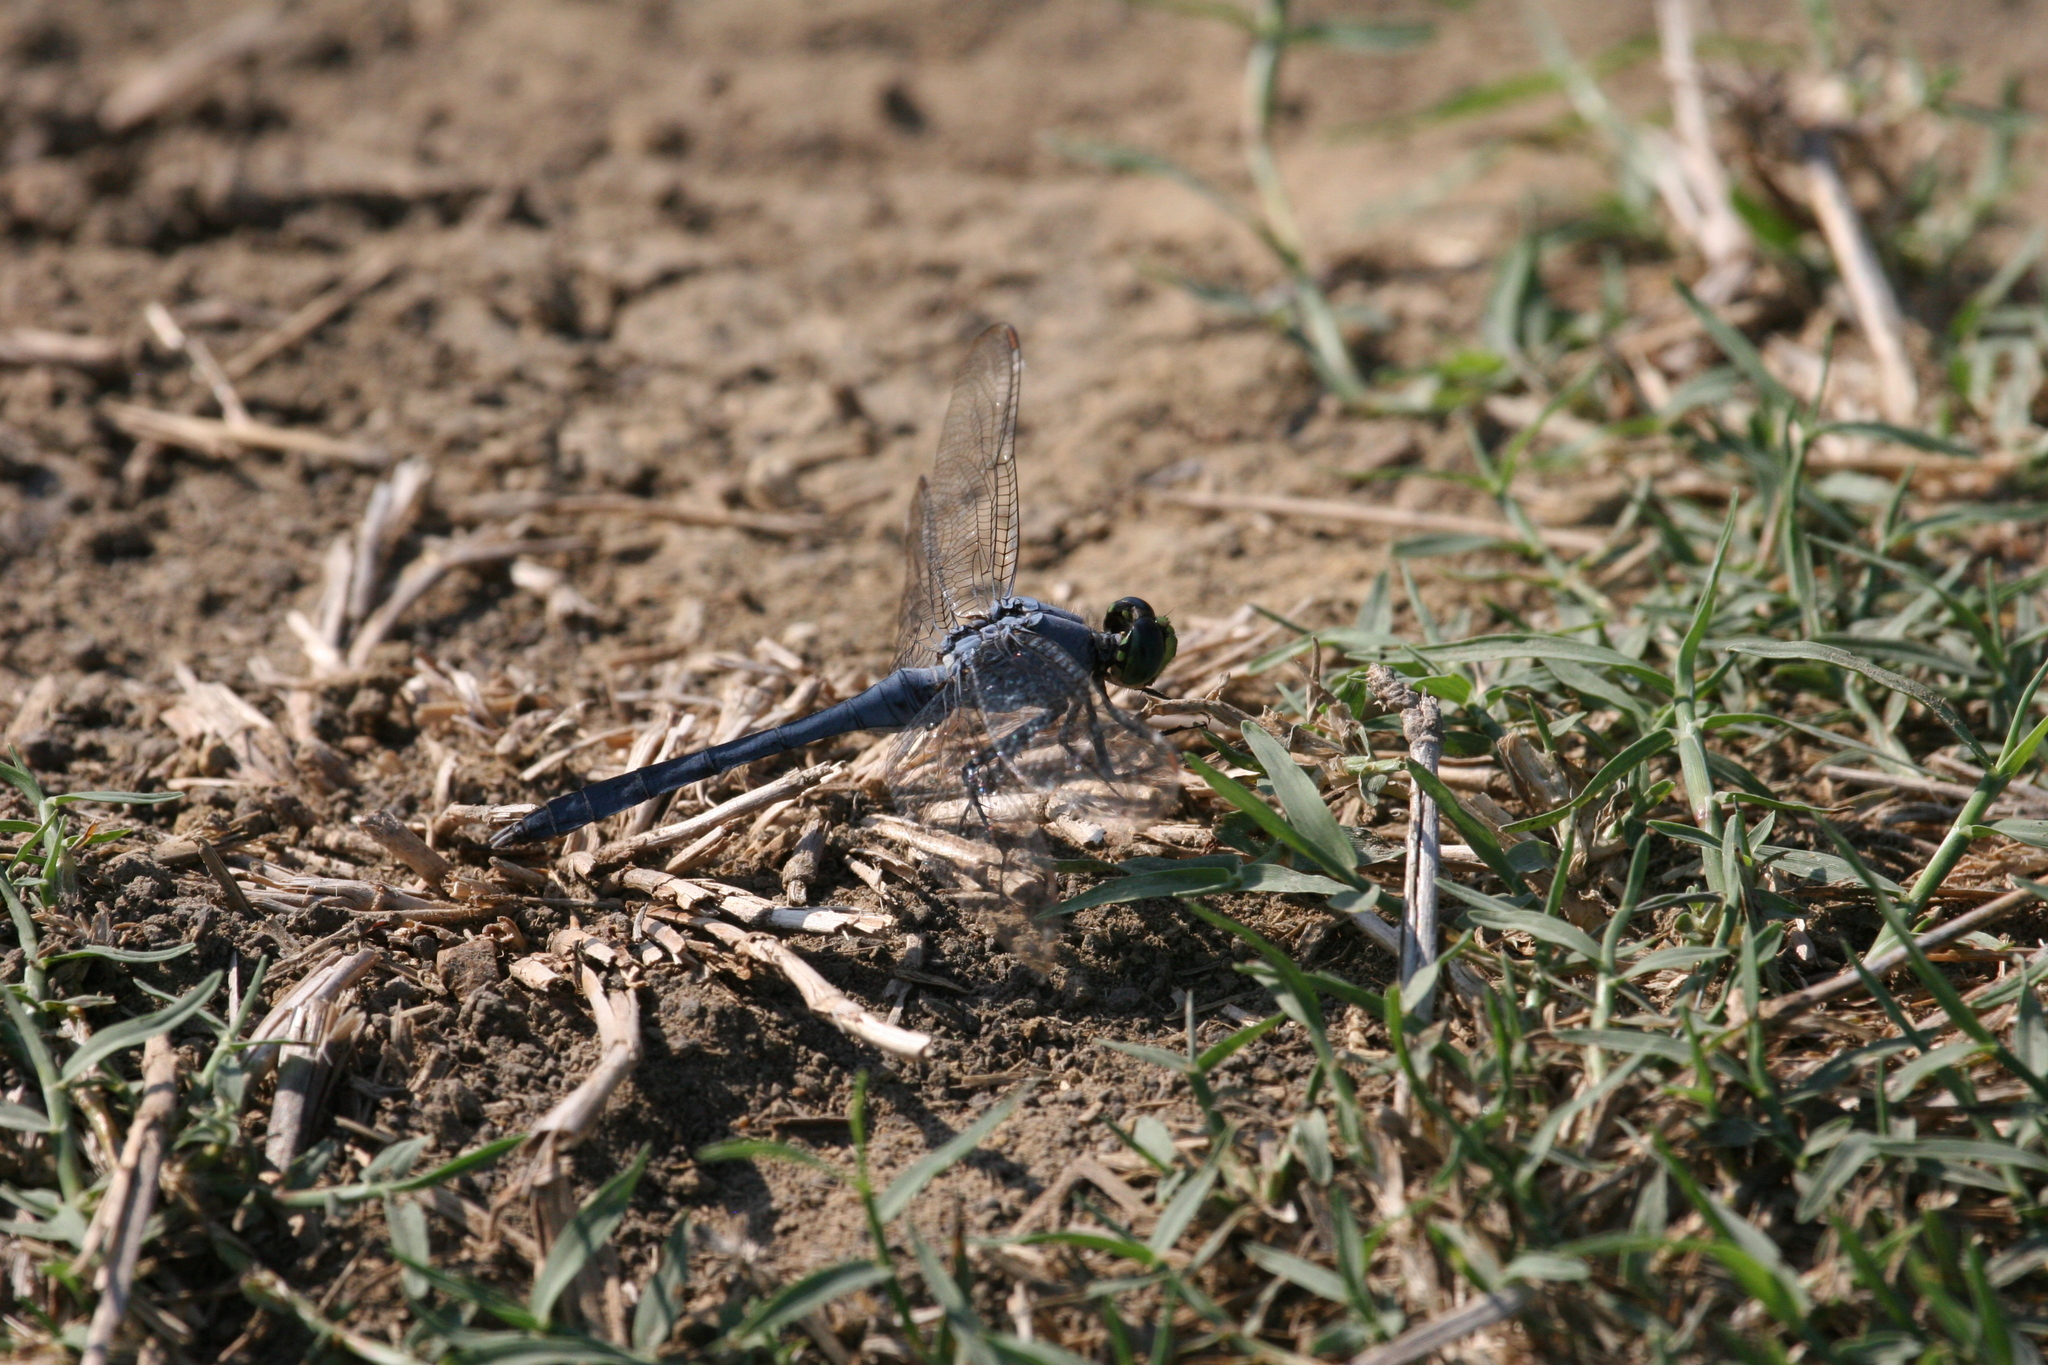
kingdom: Animalia
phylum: Arthropoda
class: Insecta
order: Odonata
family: Libellulidae
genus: Erythemis
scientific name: Erythemis simplicicollis
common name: Eastern pondhawk
